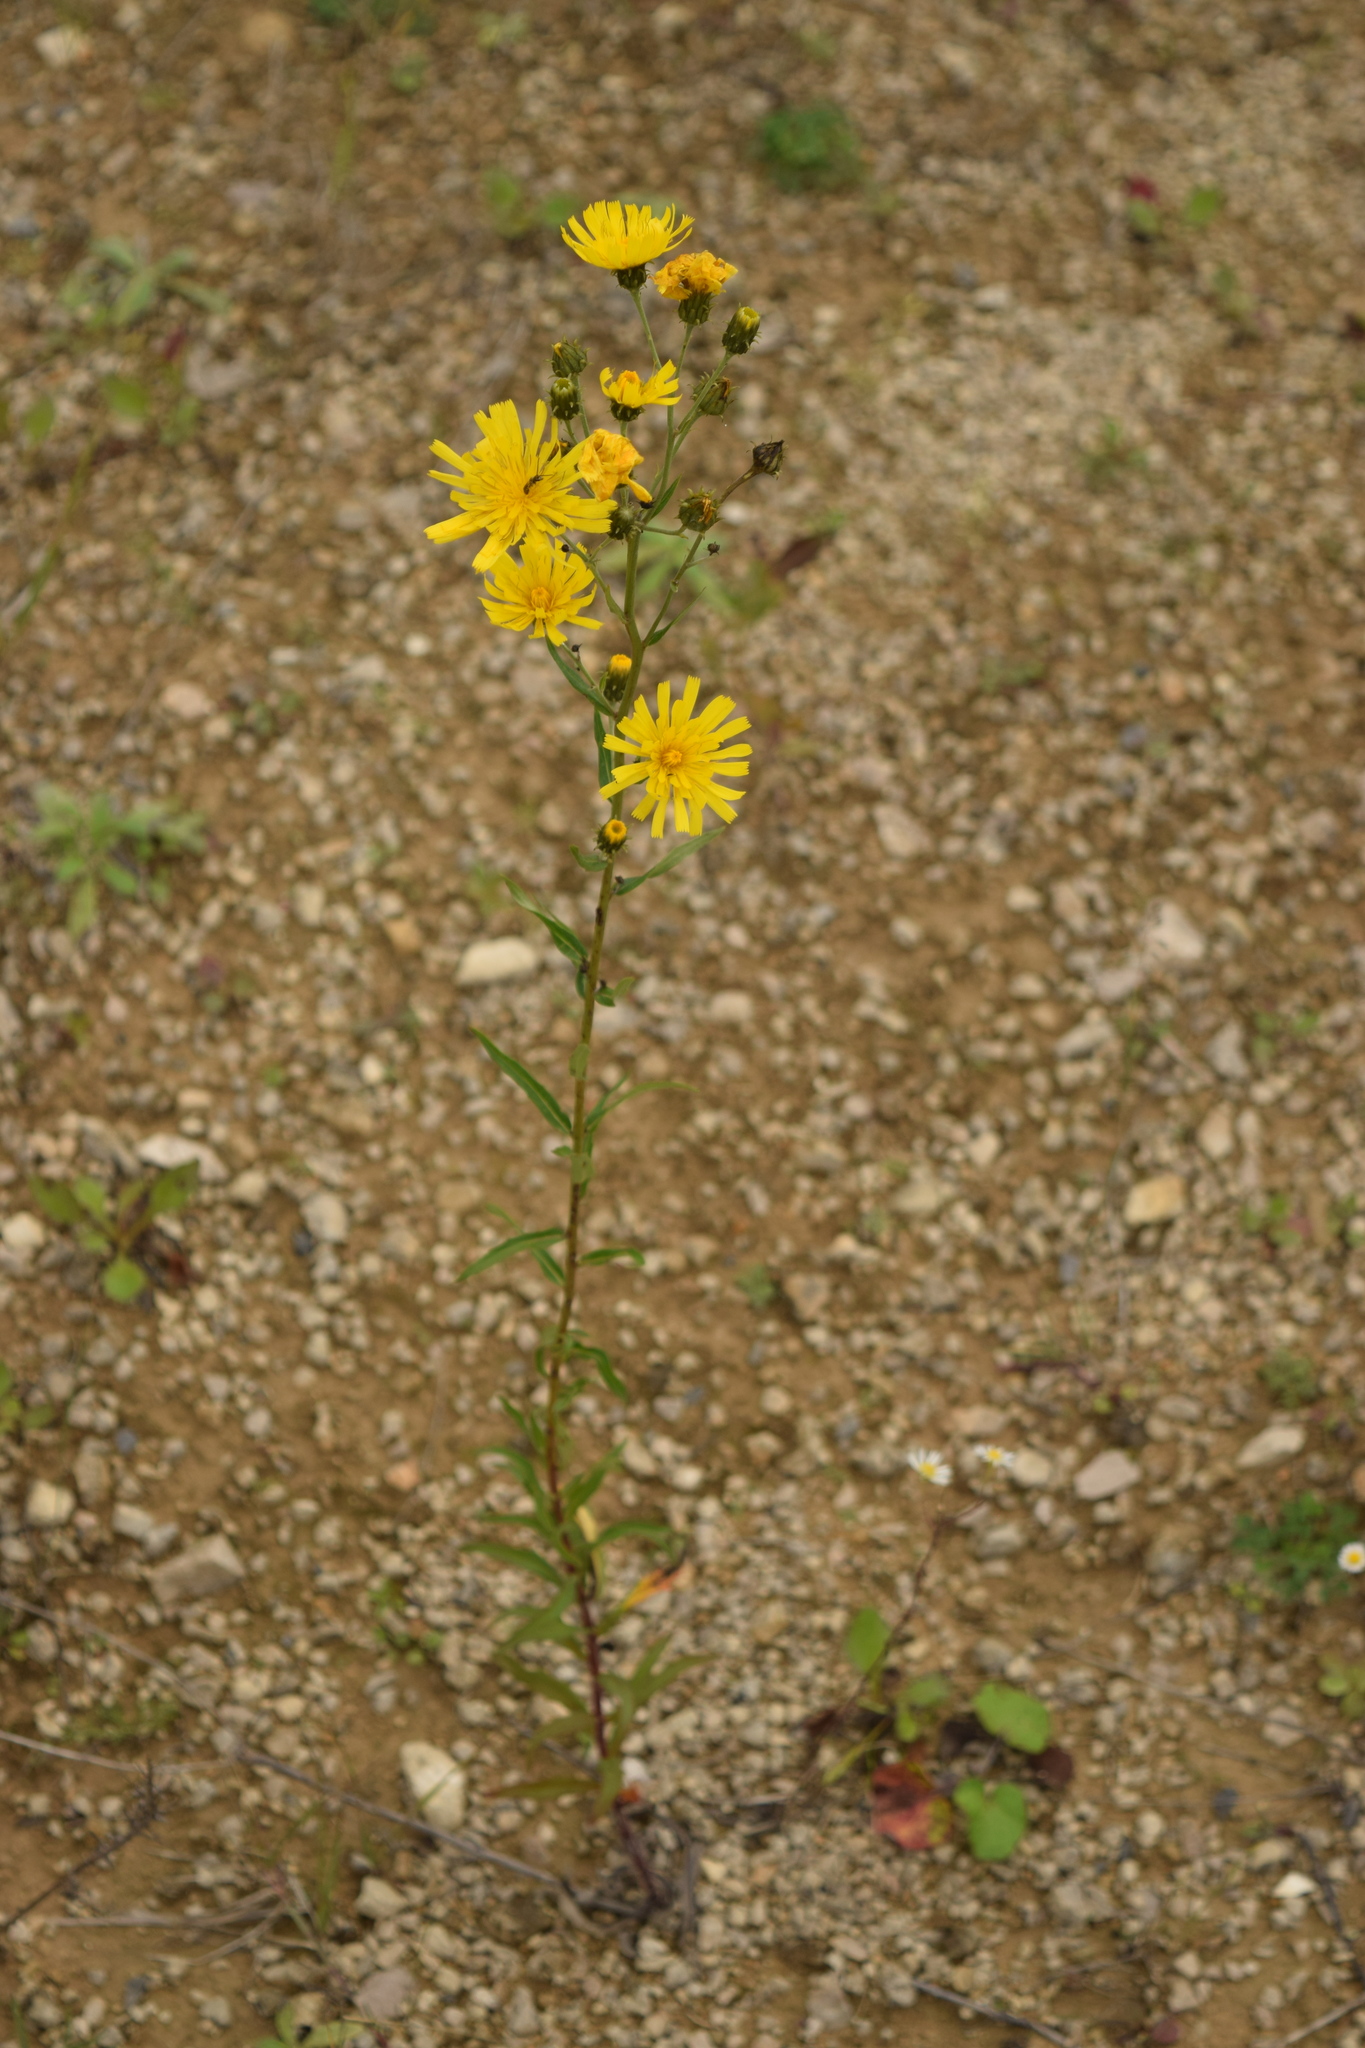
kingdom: Plantae
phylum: Tracheophyta
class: Magnoliopsida
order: Asterales
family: Asteraceae
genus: Hieracium
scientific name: Hieracium umbellatum
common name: Northern hawkweed
